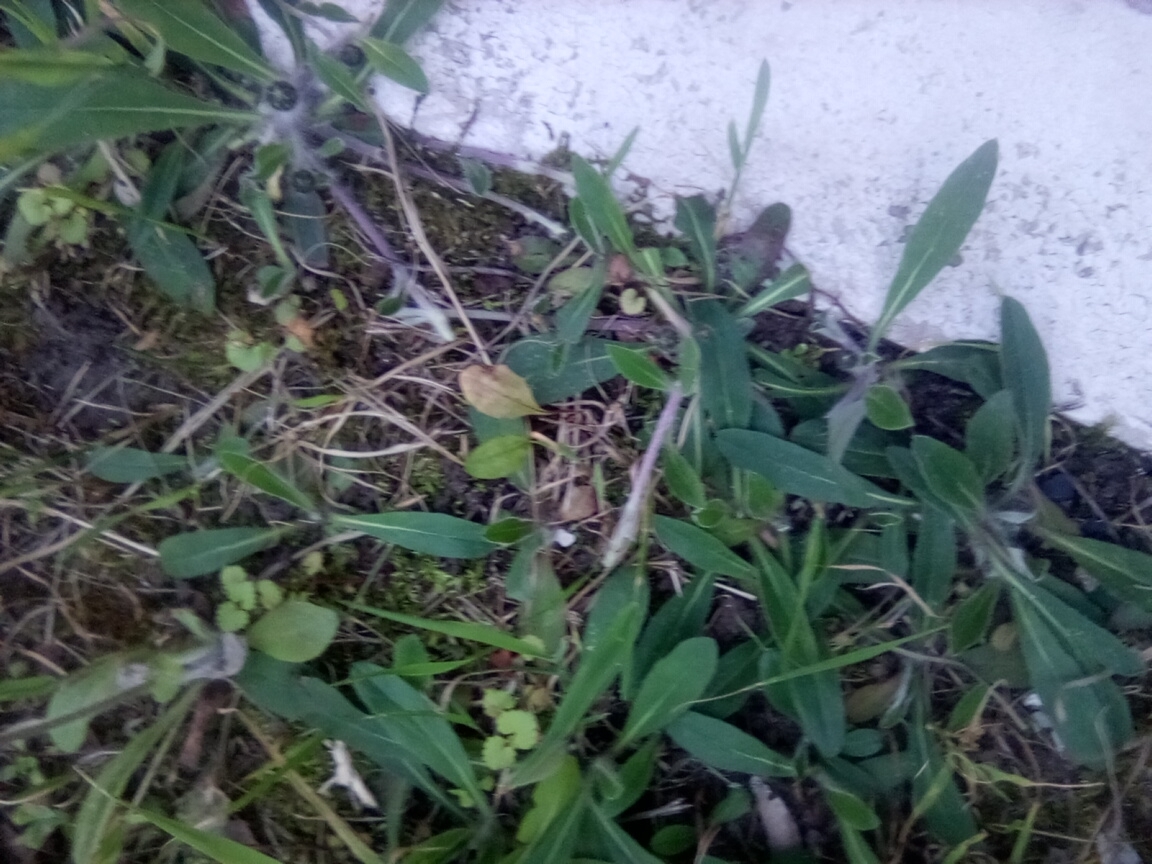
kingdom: Plantae
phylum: Tracheophyta
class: Magnoliopsida
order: Asterales
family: Asteraceae
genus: Pilosella
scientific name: Pilosella officinarum
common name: Mouse-ear hawkweed
